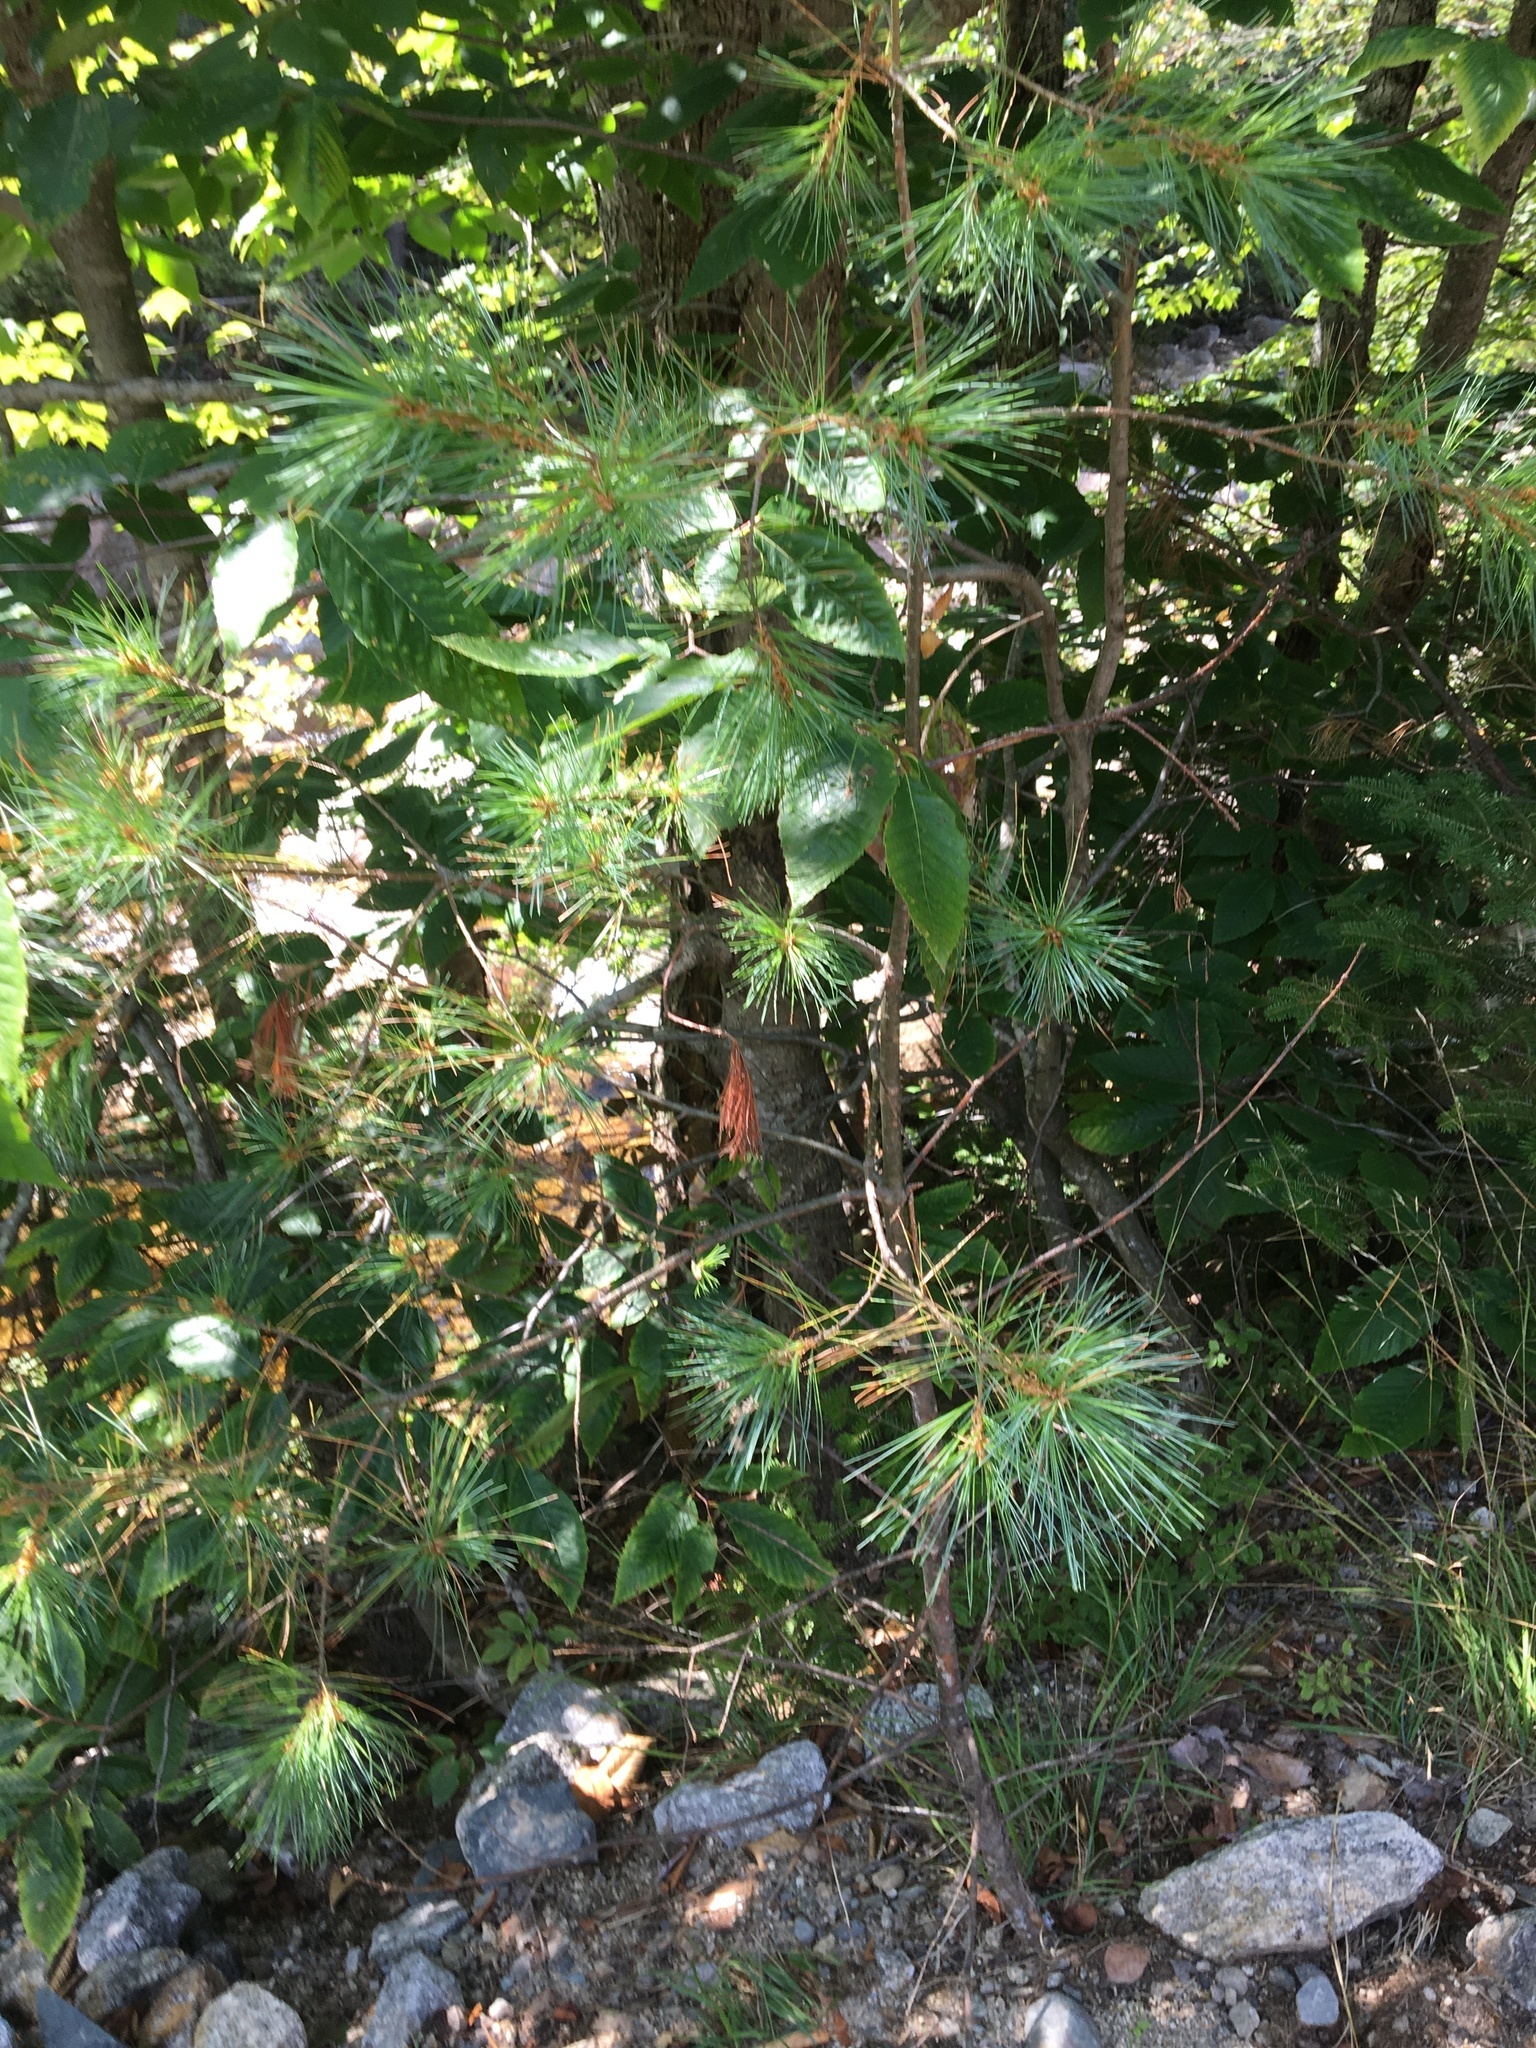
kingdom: Plantae
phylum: Tracheophyta
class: Pinopsida
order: Pinales
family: Pinaceae
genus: Abies
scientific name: Abies balsamea
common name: Balsam fir
